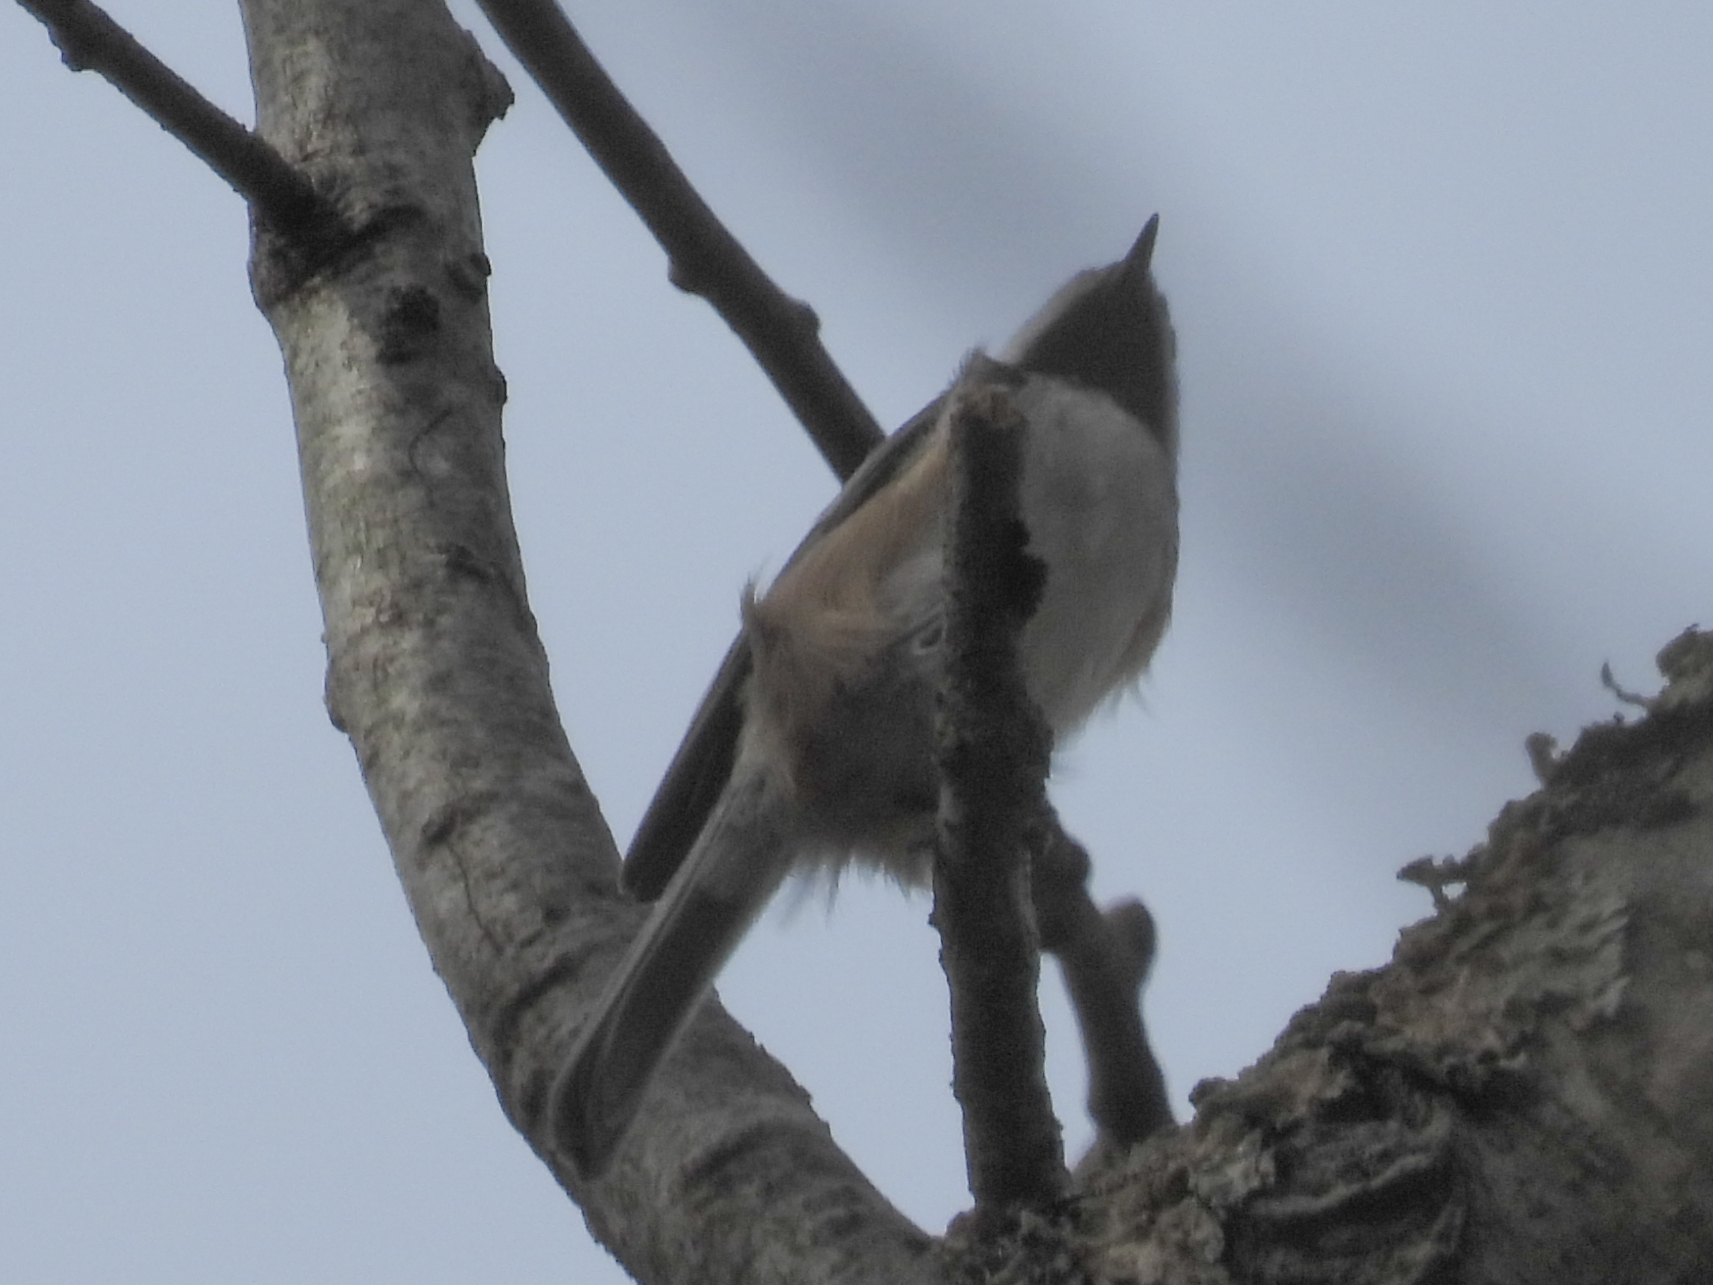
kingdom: Animalia
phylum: Chordata
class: Aves
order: Passeriformes
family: Paridae
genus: Poecile
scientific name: Poecile atricapillus
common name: Black-capped chickadee
